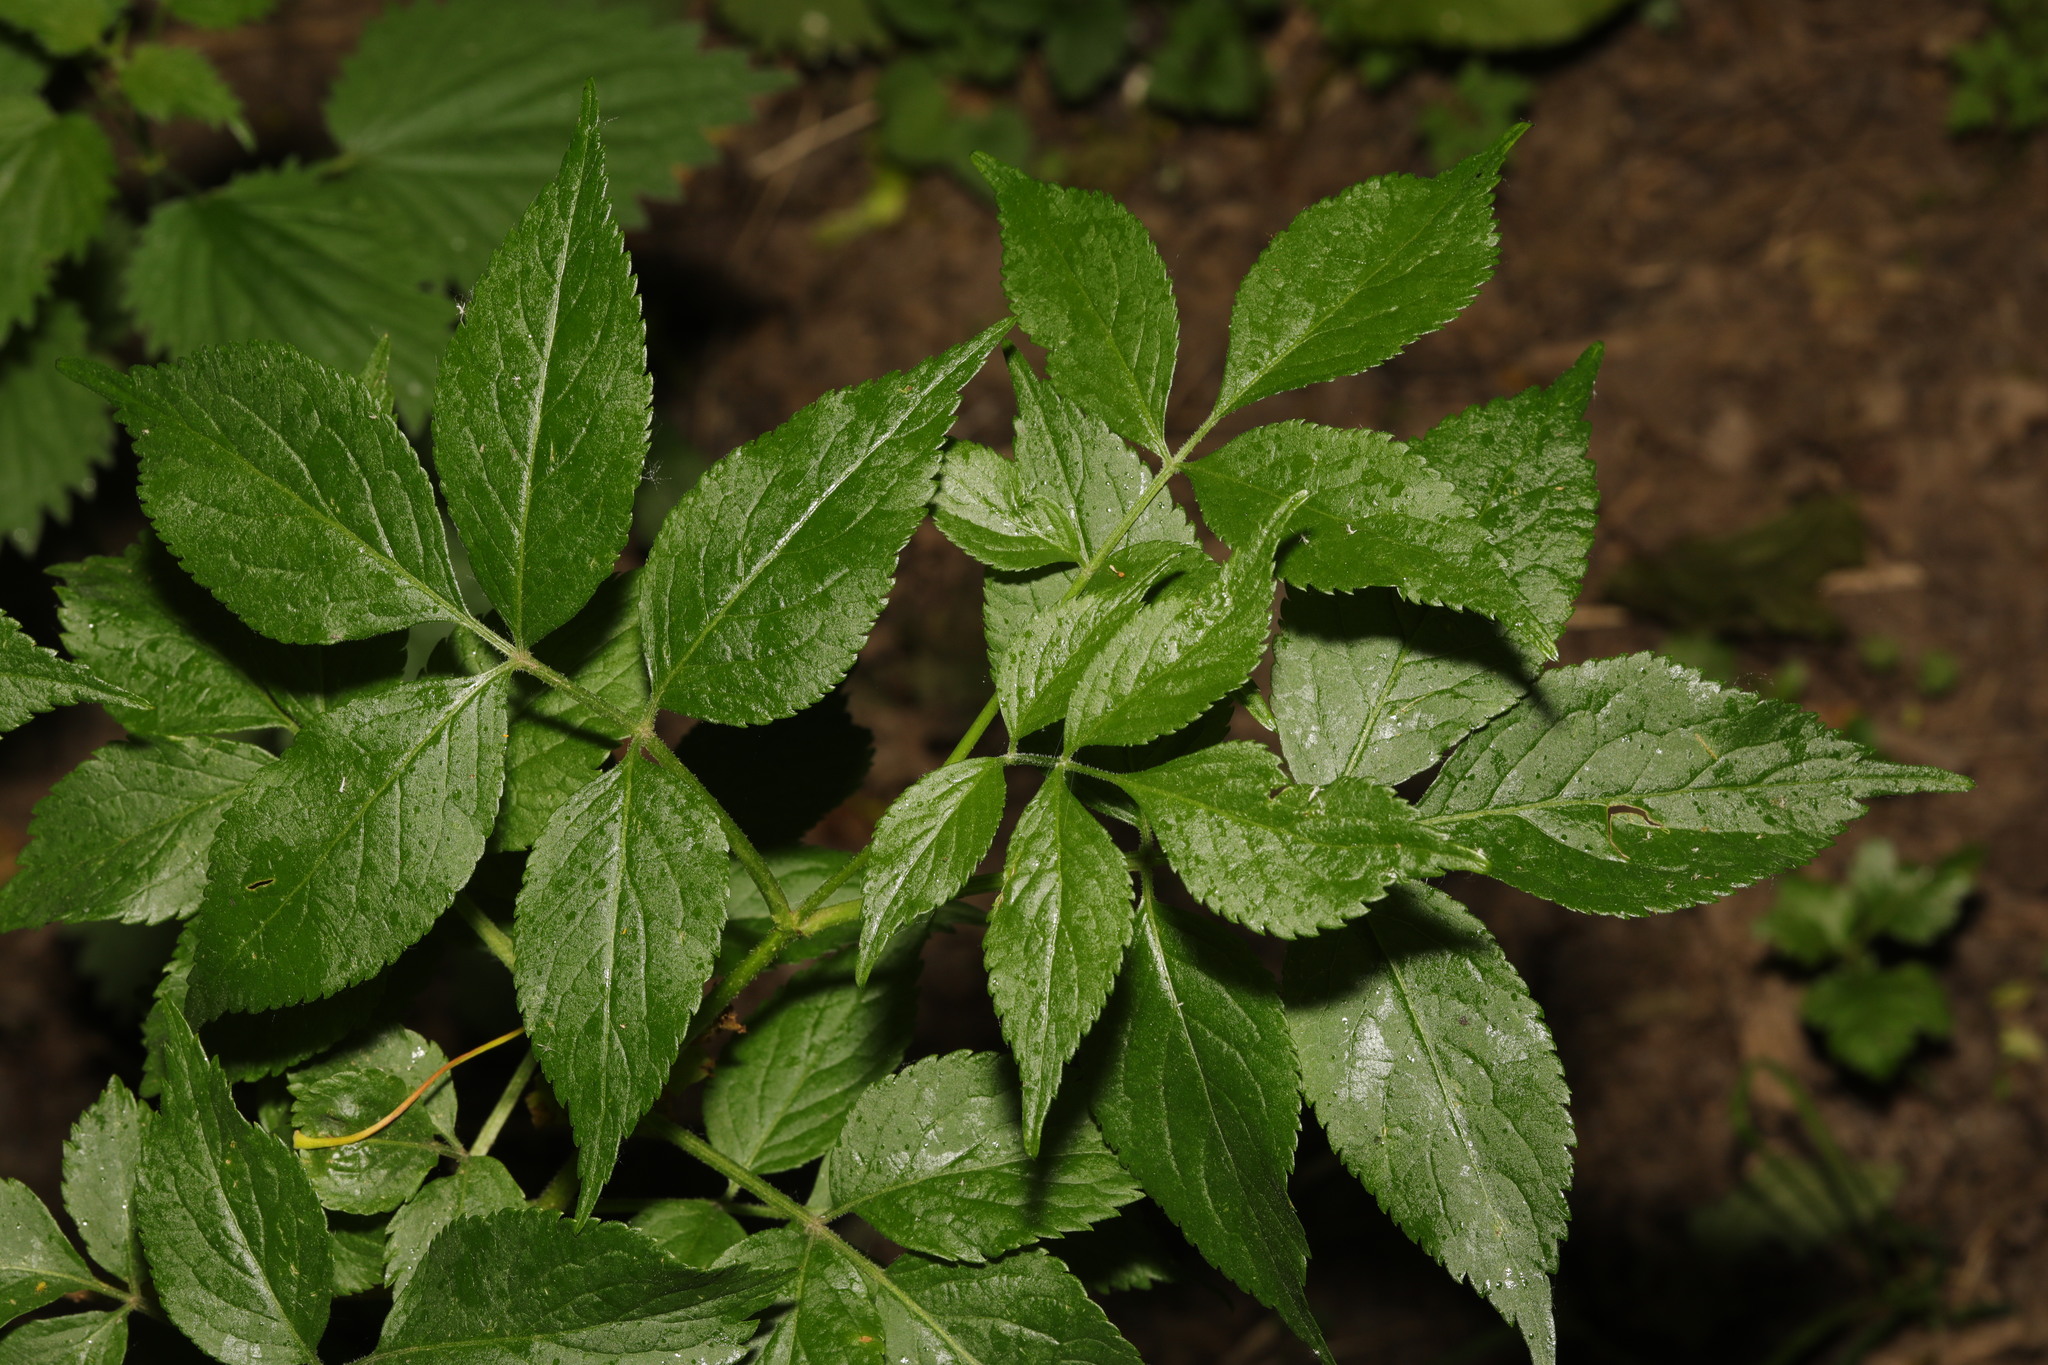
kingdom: Plantae
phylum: Tracheophyta
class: Magnoliopsida
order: Dipsacales
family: Viburnaceae
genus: Sambucus
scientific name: Sambucus nigra
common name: Elder
